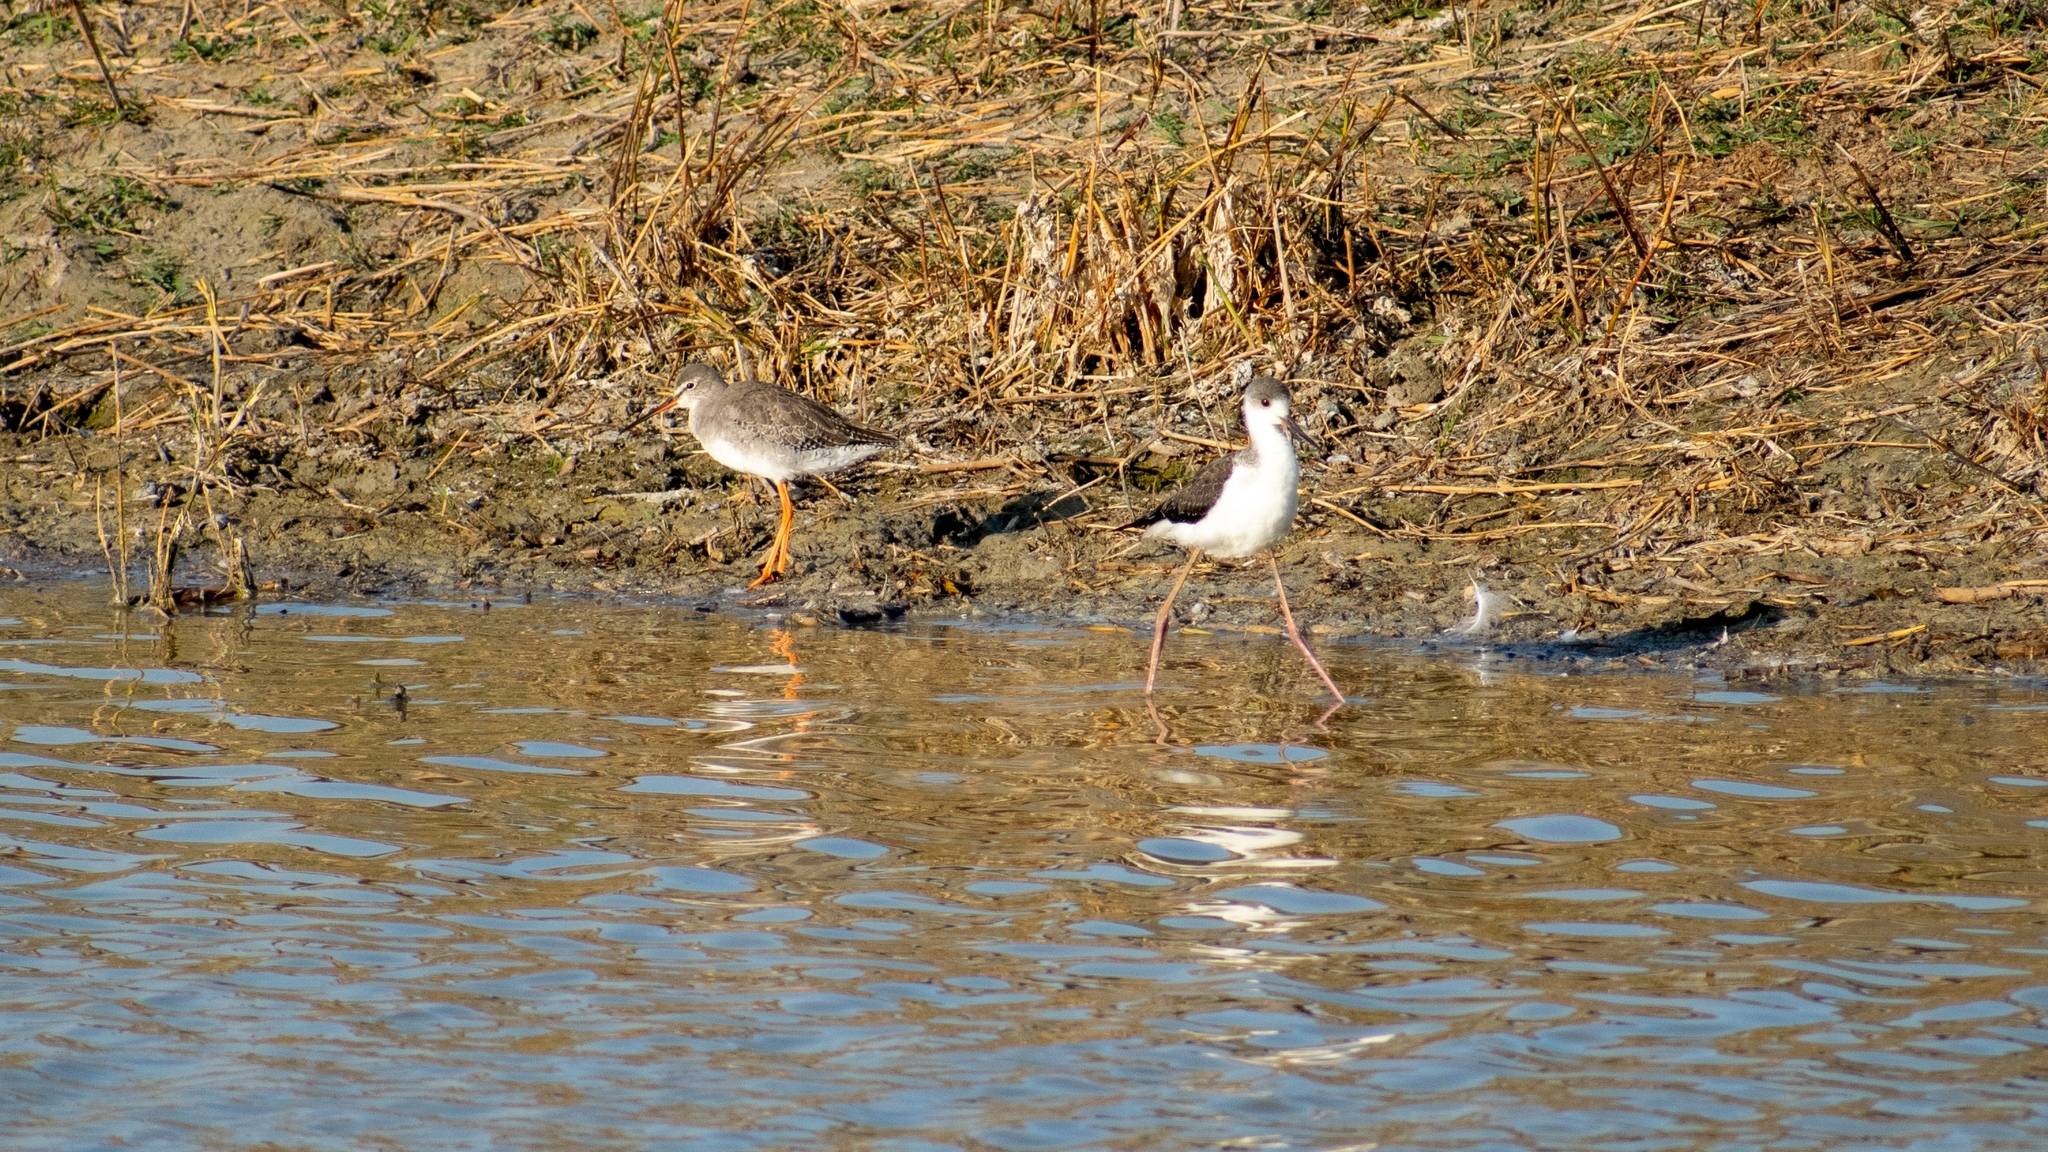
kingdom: Animalia
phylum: Chordata
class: Aves
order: Charadriiformes
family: Scolopacidae
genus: Tringa
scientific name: Tringa totanus
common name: Common redshank
